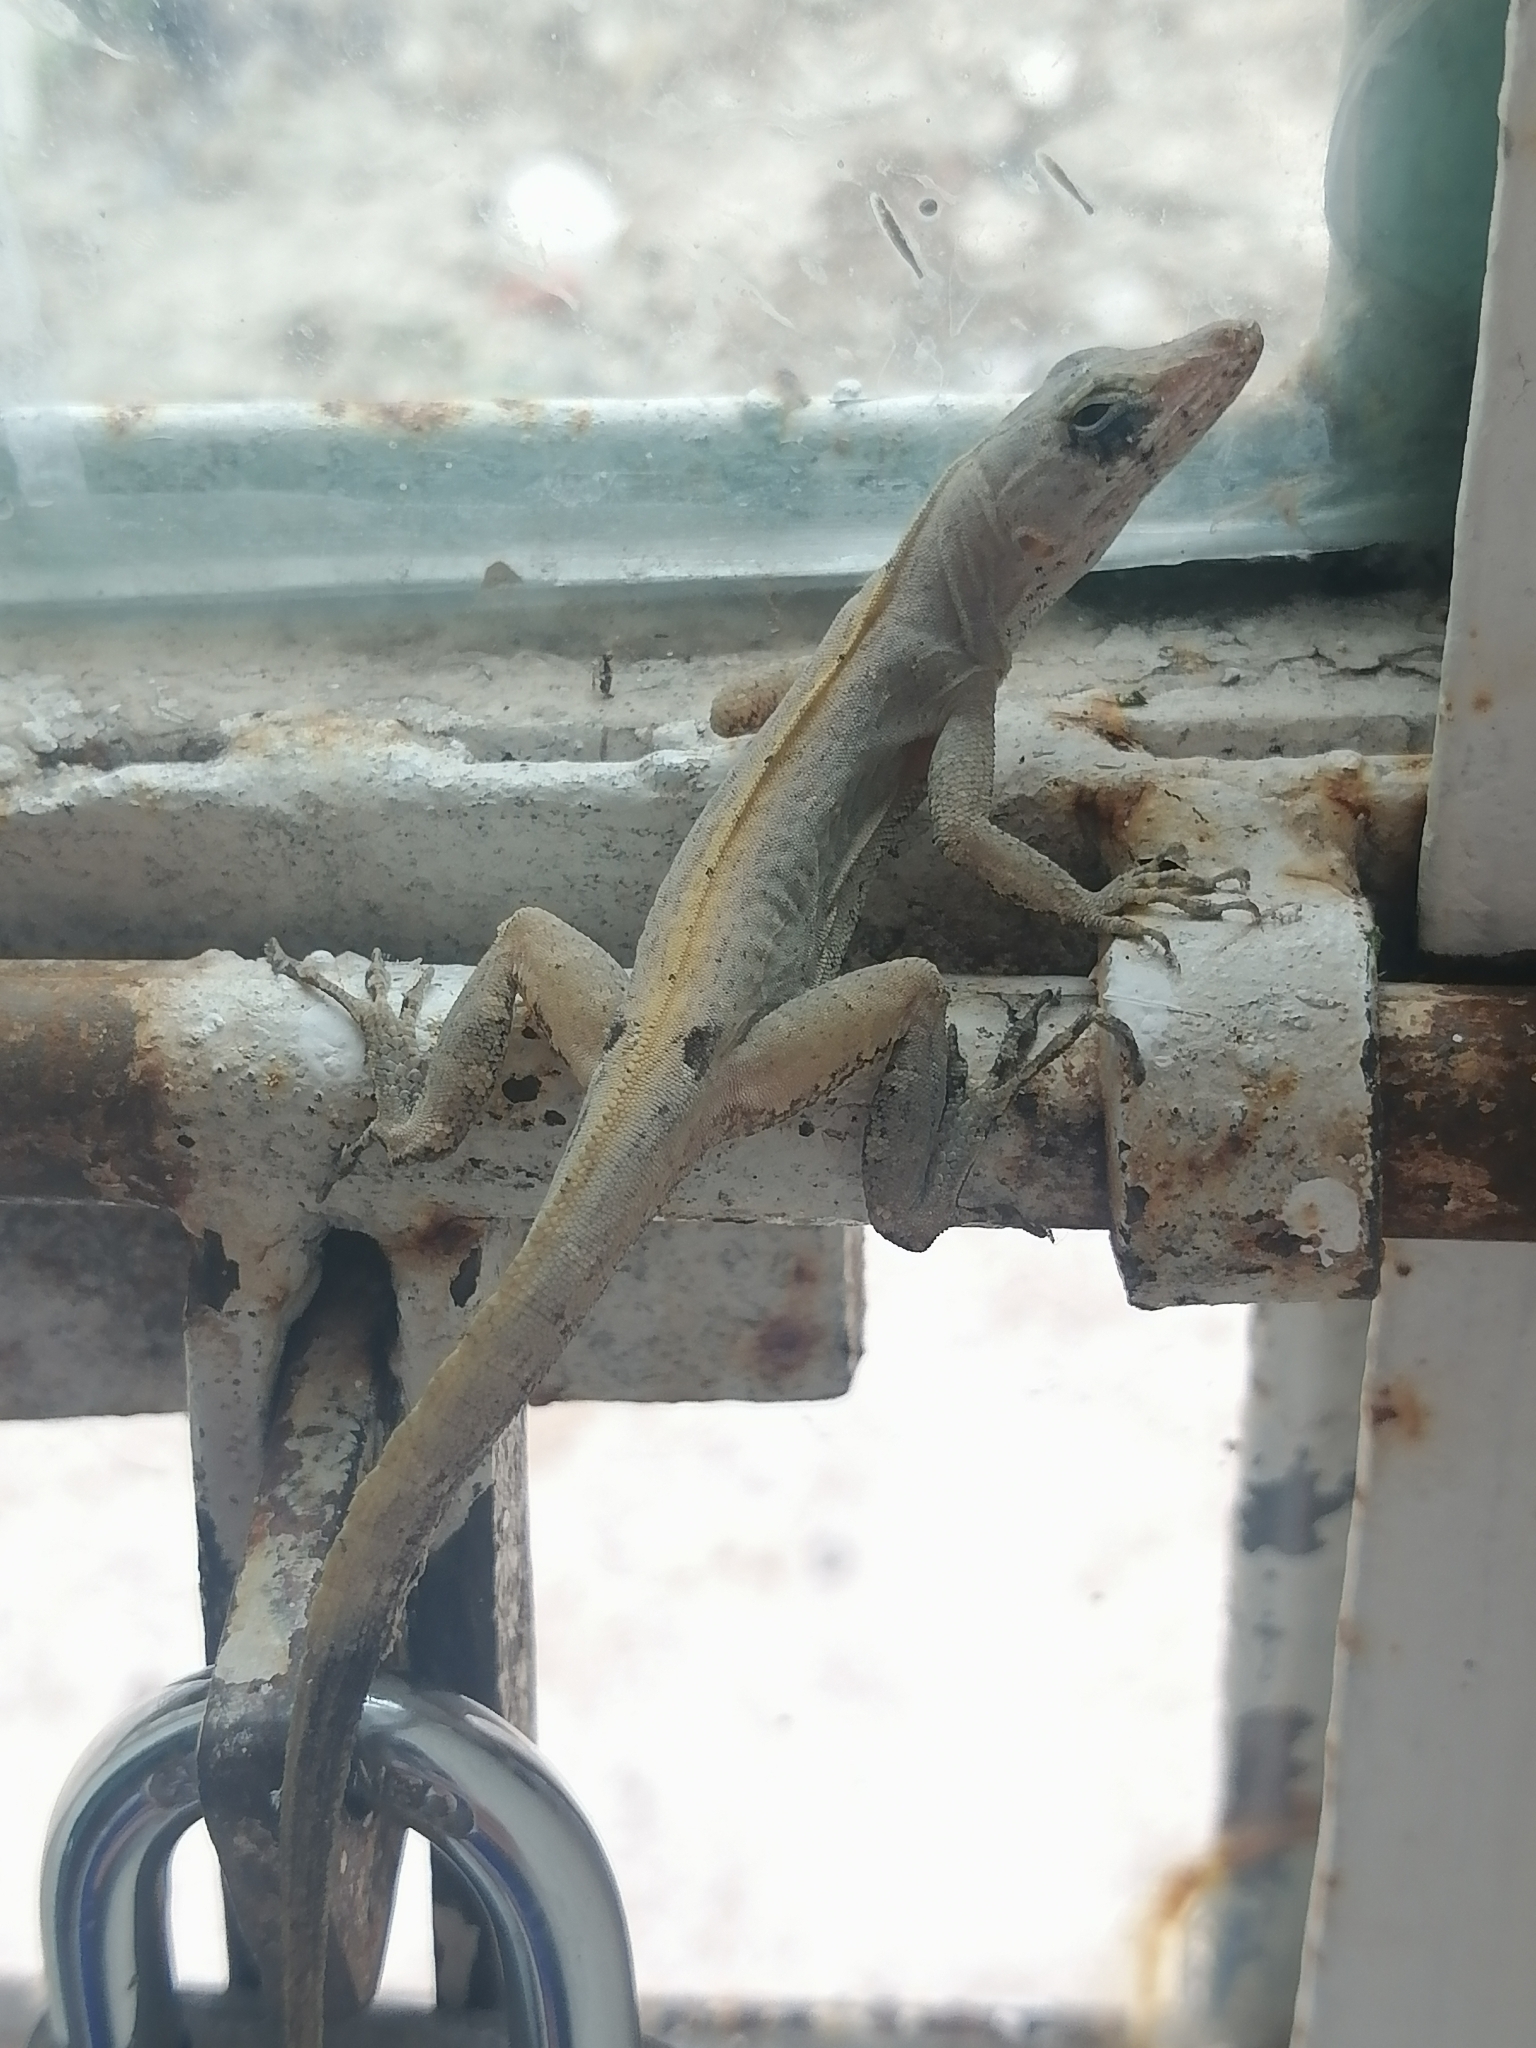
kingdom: Animalia
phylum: Chordata
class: Squamata
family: Dactyloidae
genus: Anolis
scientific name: Anolis sagrei
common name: Brown anole
